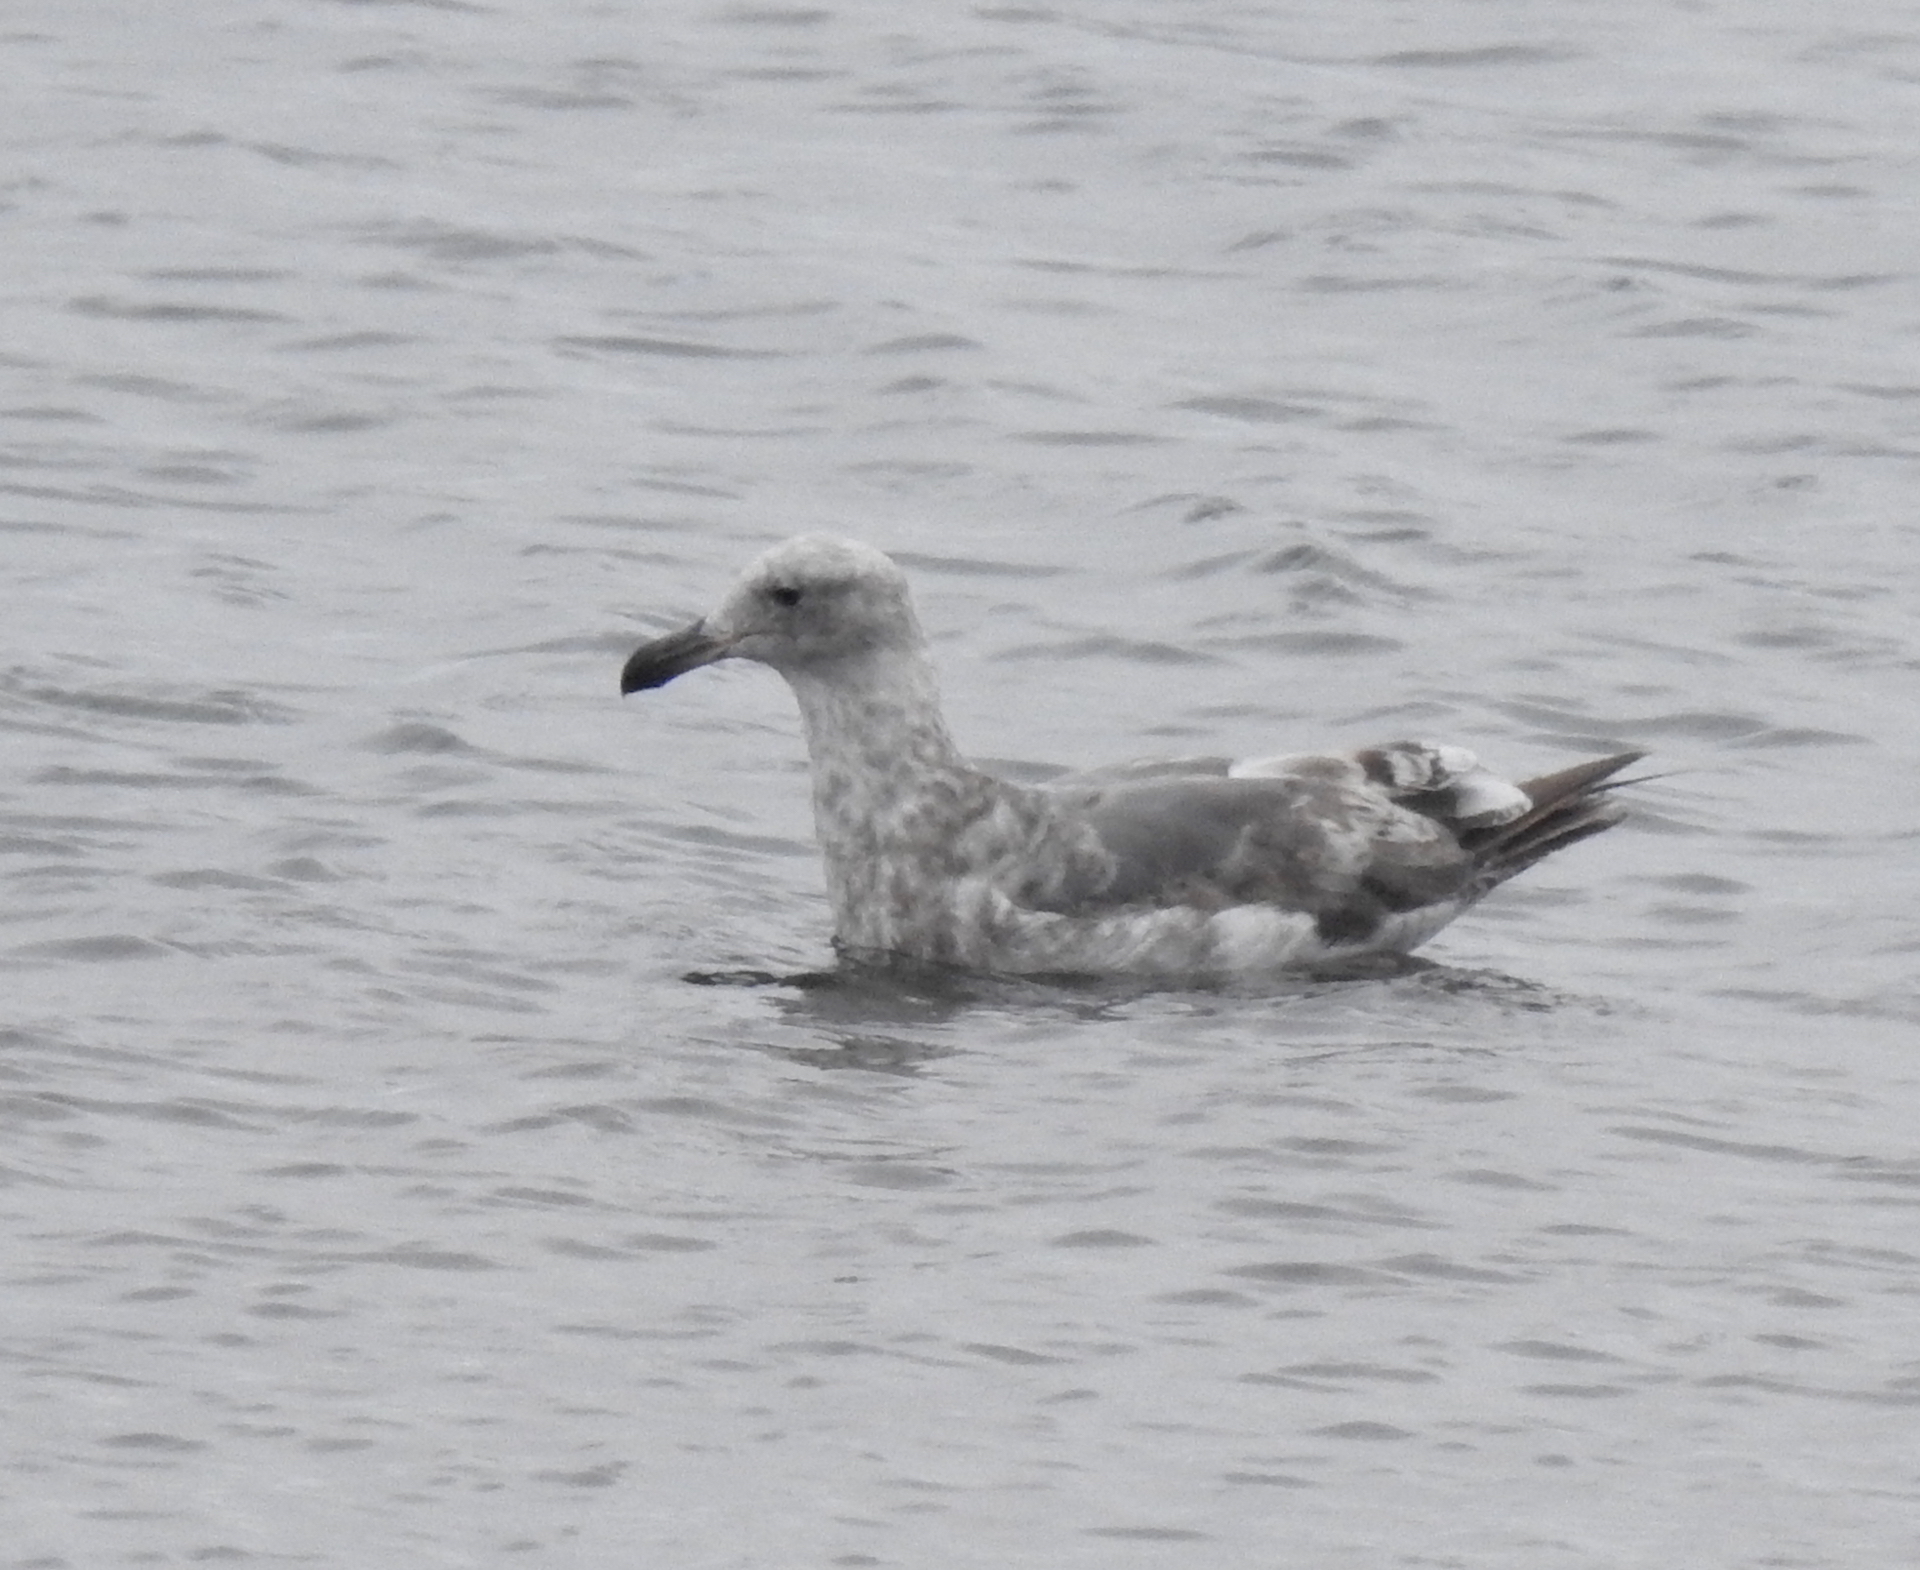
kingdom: Animalia
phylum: Chordata
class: Aves
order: Charadriiformes
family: Laridae
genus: Larus
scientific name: Larus occidentalis
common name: Western gull
